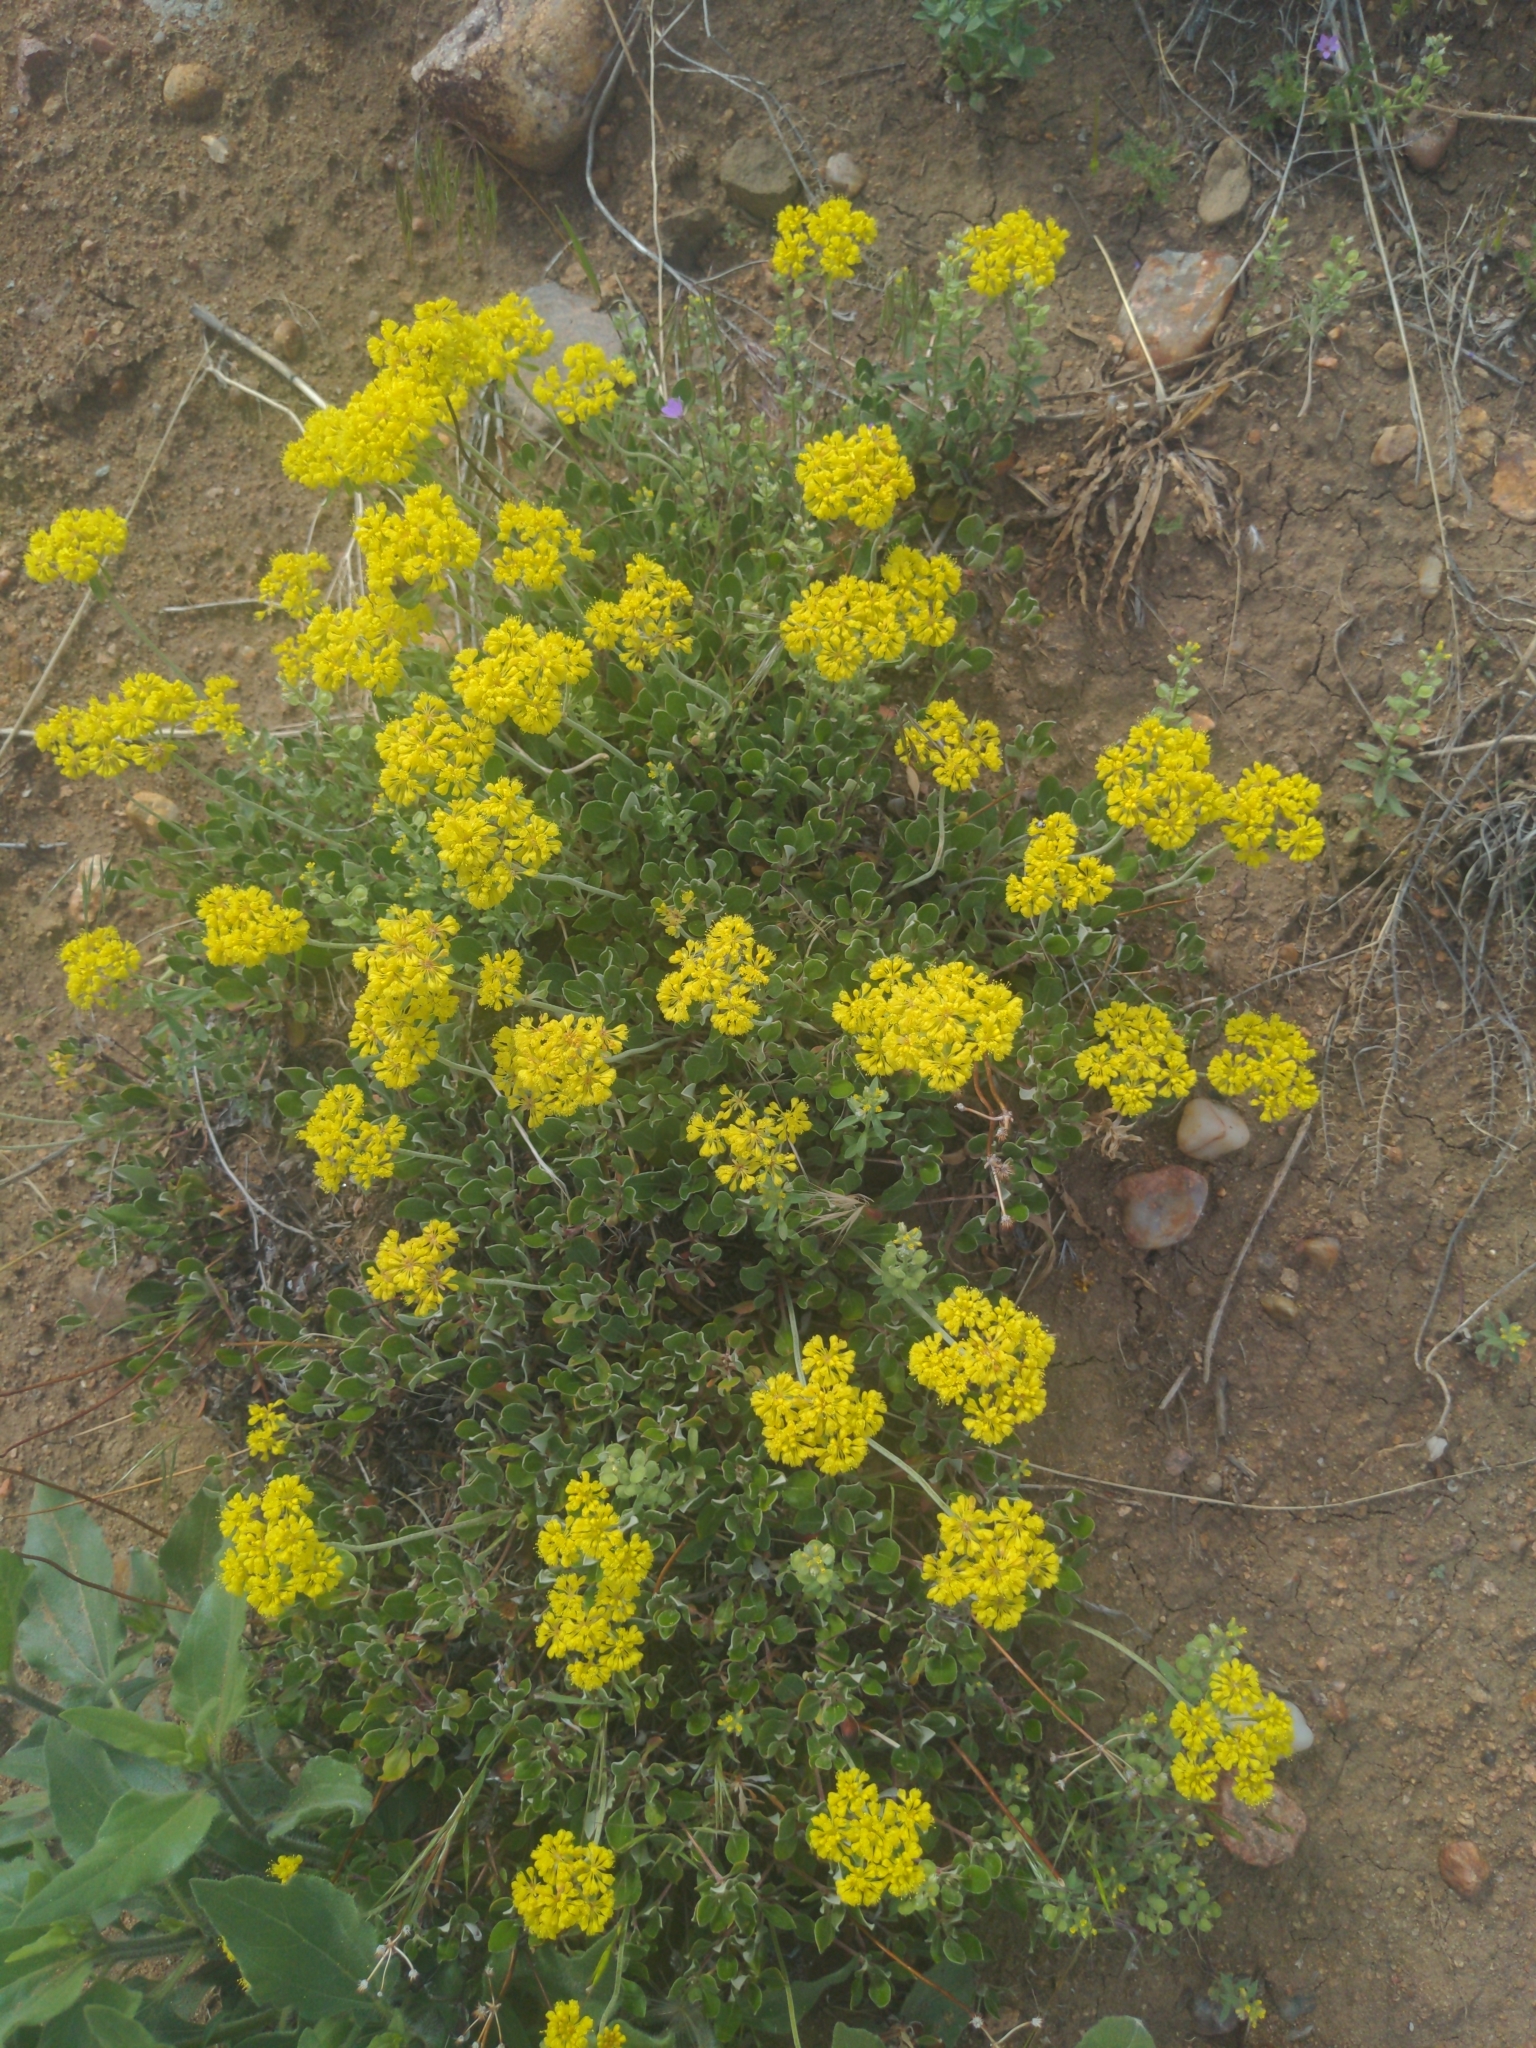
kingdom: Plantae
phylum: Tracheophyta
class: Magnoliopsida
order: Caryophyllales
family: Polygonaceae
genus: Eriogonum
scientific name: Eriogonum umbellatum
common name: Sulfur-buckwheat
